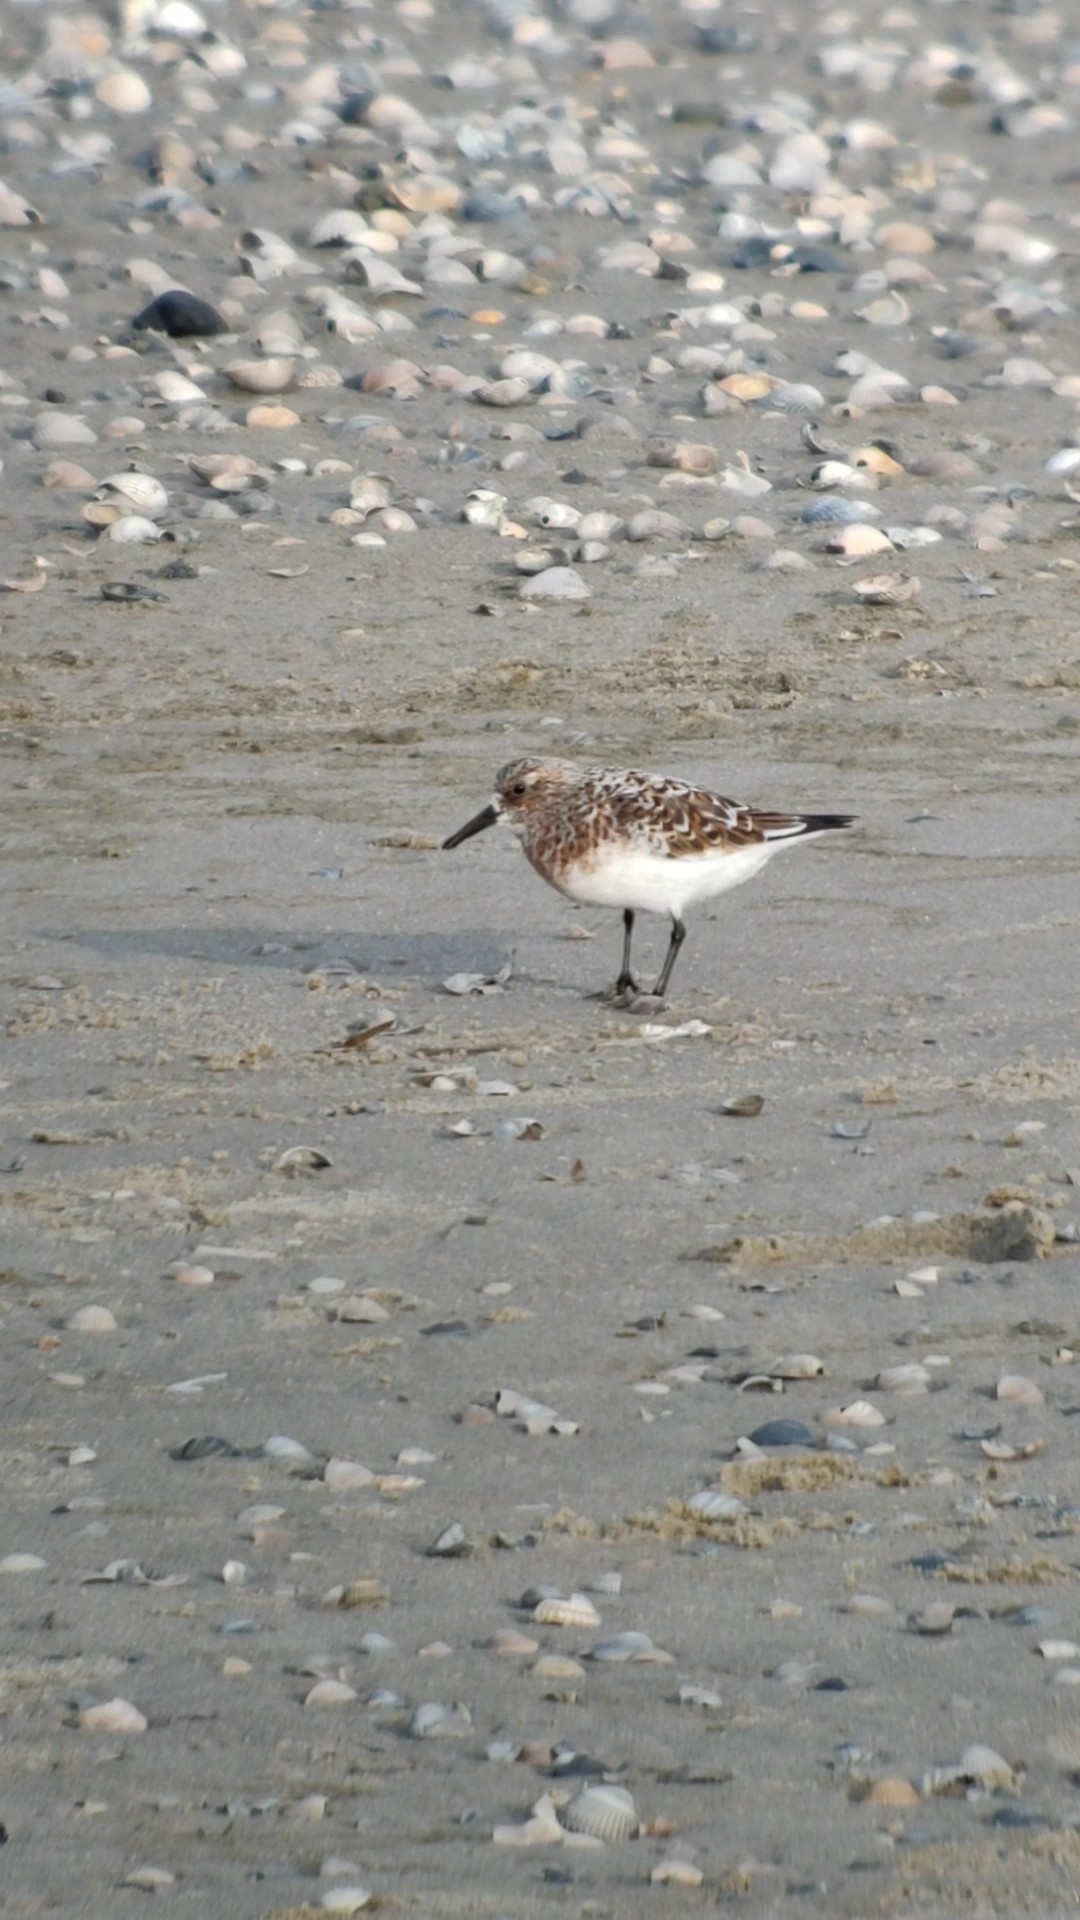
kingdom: Animalia
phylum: Chordata
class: Aves
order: Charadriiformes
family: Scolopacidae
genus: Calidris
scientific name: Calidris alba
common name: Sanderling
